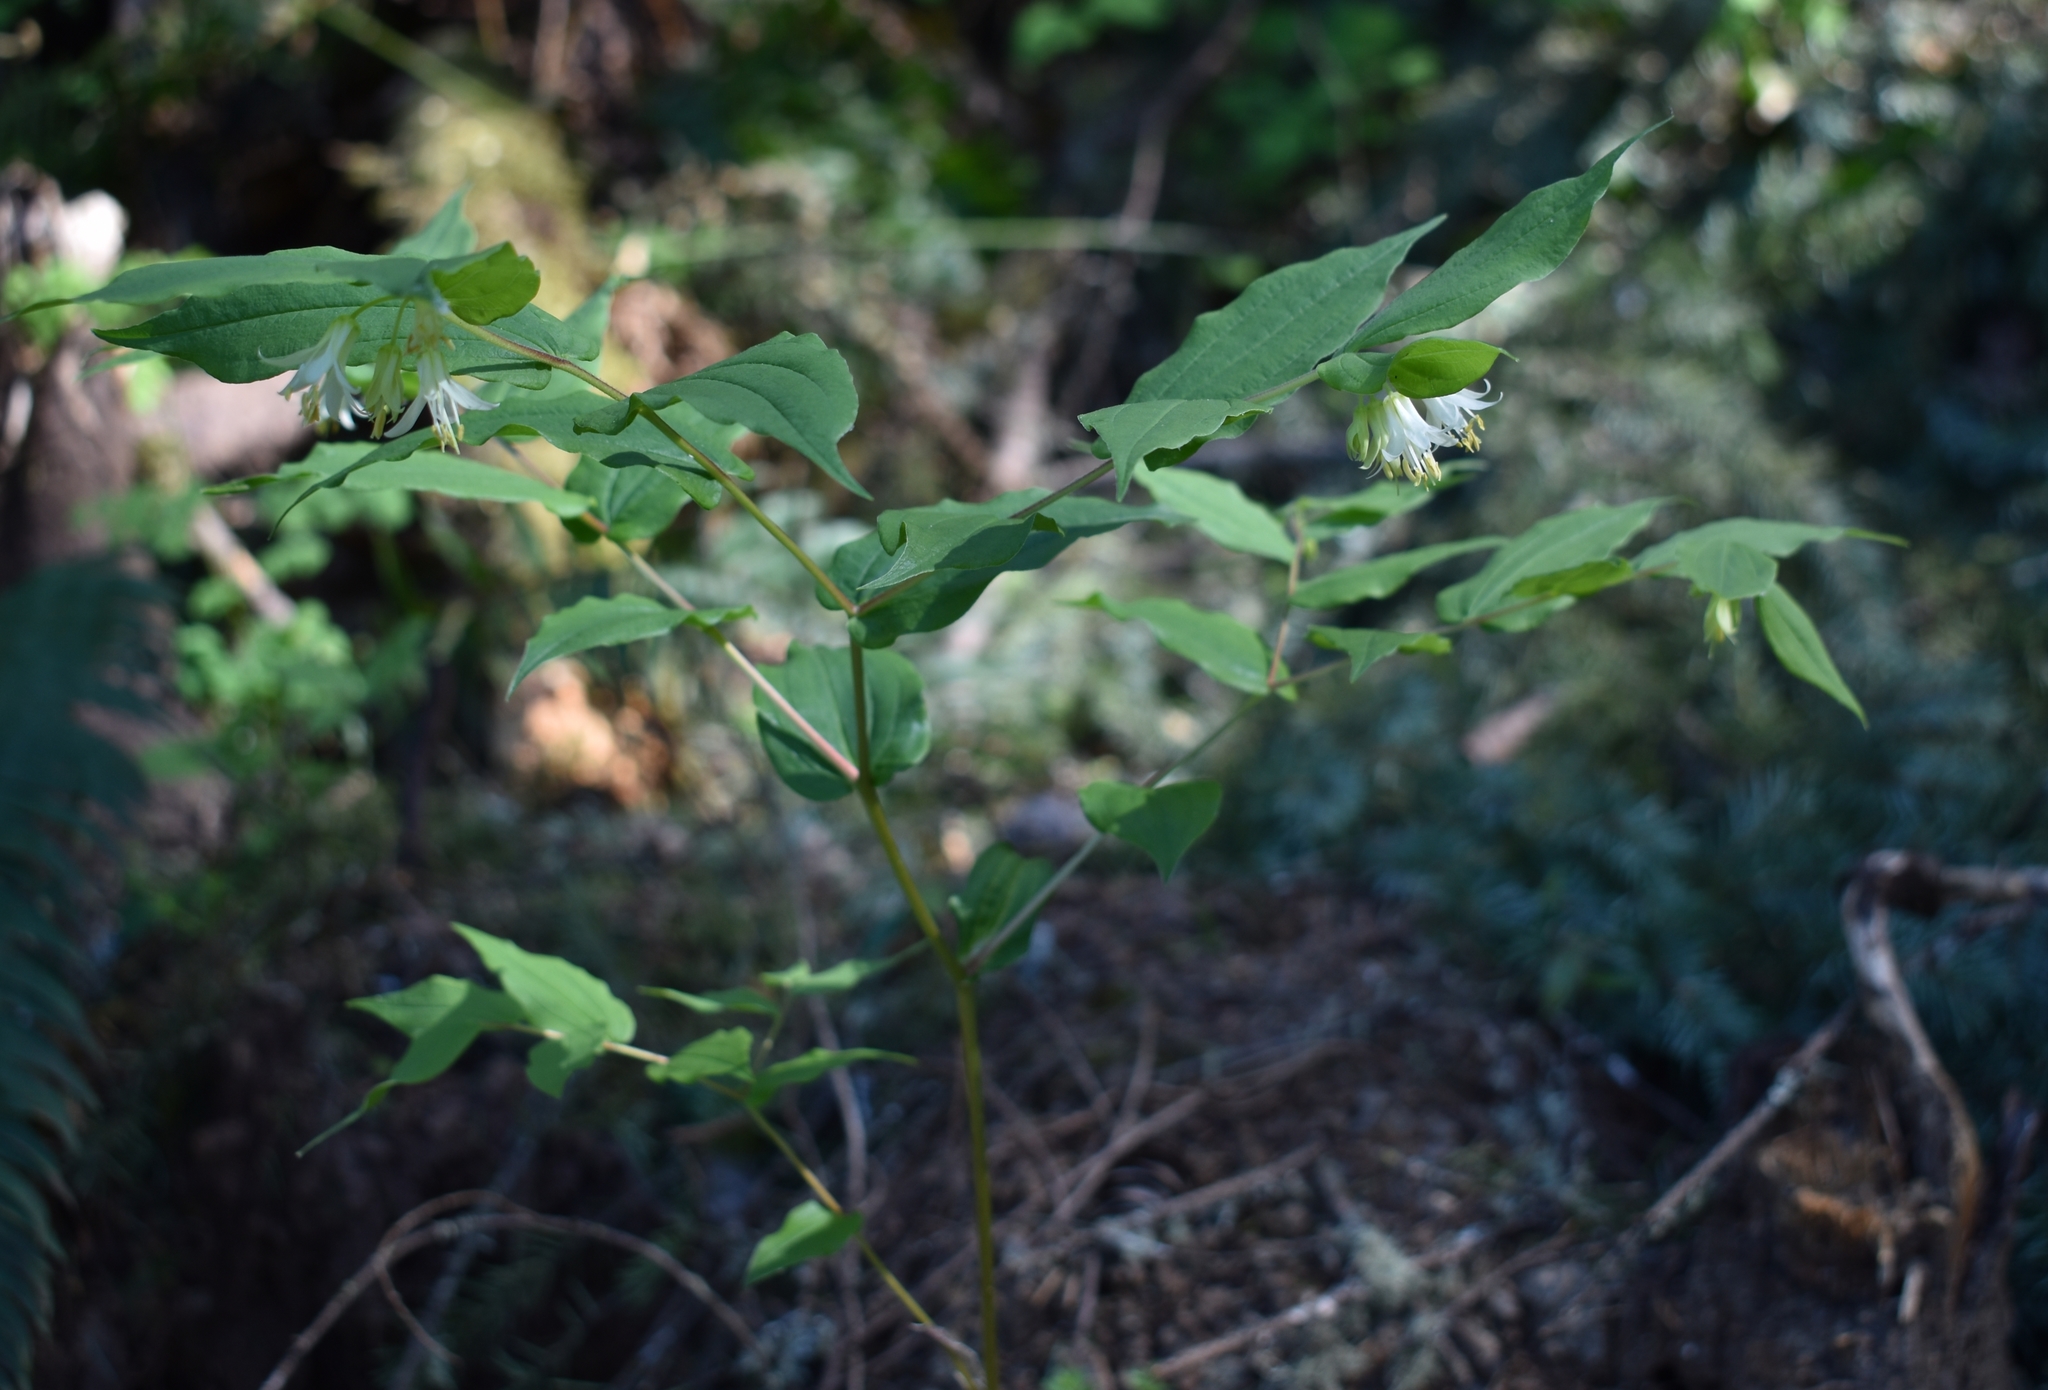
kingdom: Plantae
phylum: Tracheophyta
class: Liliopsida
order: Liliales
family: Liliaceae
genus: Prosartes
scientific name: Prosartes hookeri
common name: Fairy-bells
